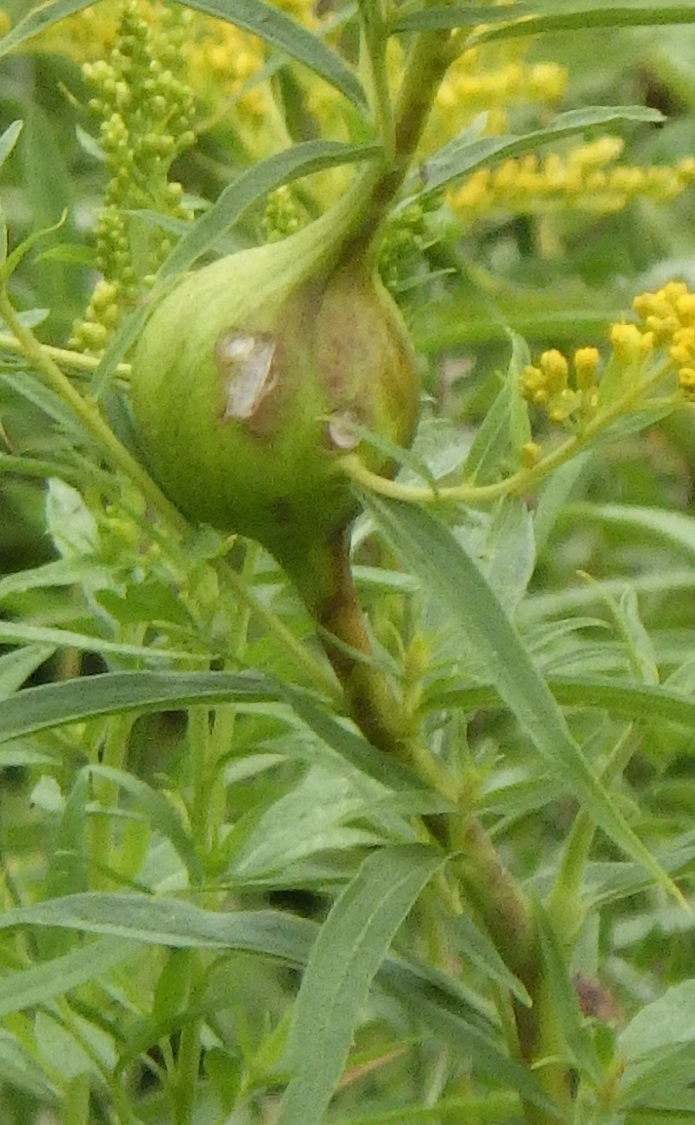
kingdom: Animalia
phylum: Arthropoda
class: Insecta
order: Diptera
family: Tephritidae
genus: Eurosta
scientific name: Eurosta solidaginis
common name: Goldenrod gall fly
